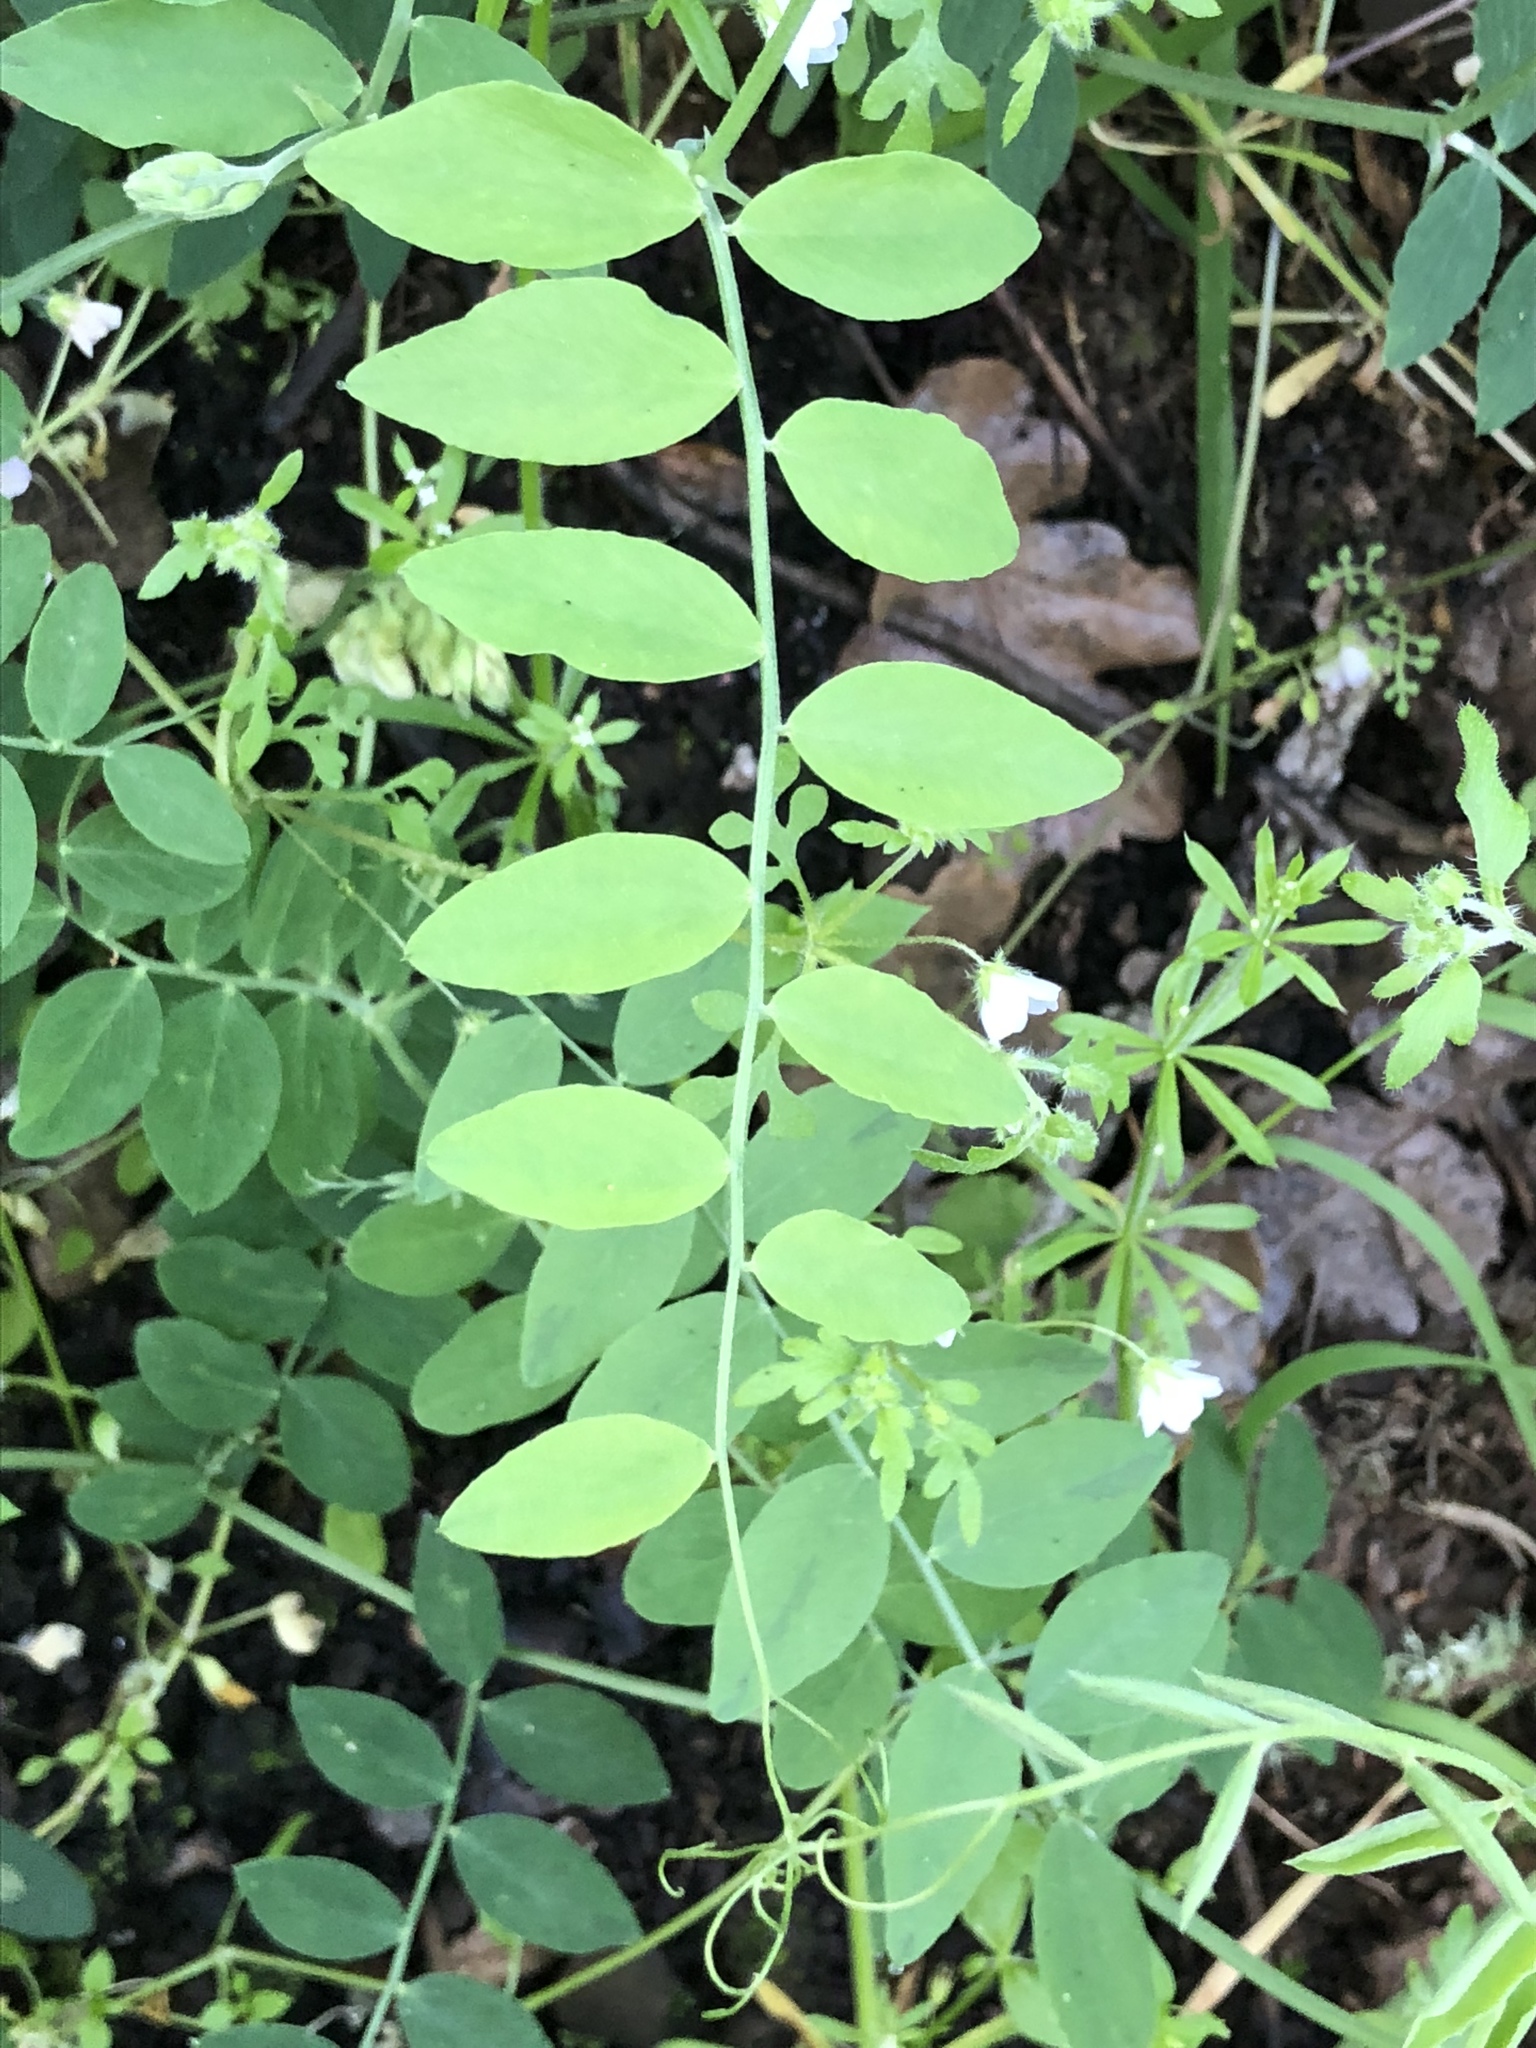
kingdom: Plantae
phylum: Tracheophyta
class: Magnoliopsida
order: Fabales
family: Fabaceae
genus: Lathyrus
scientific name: Lathyrus vestitus
